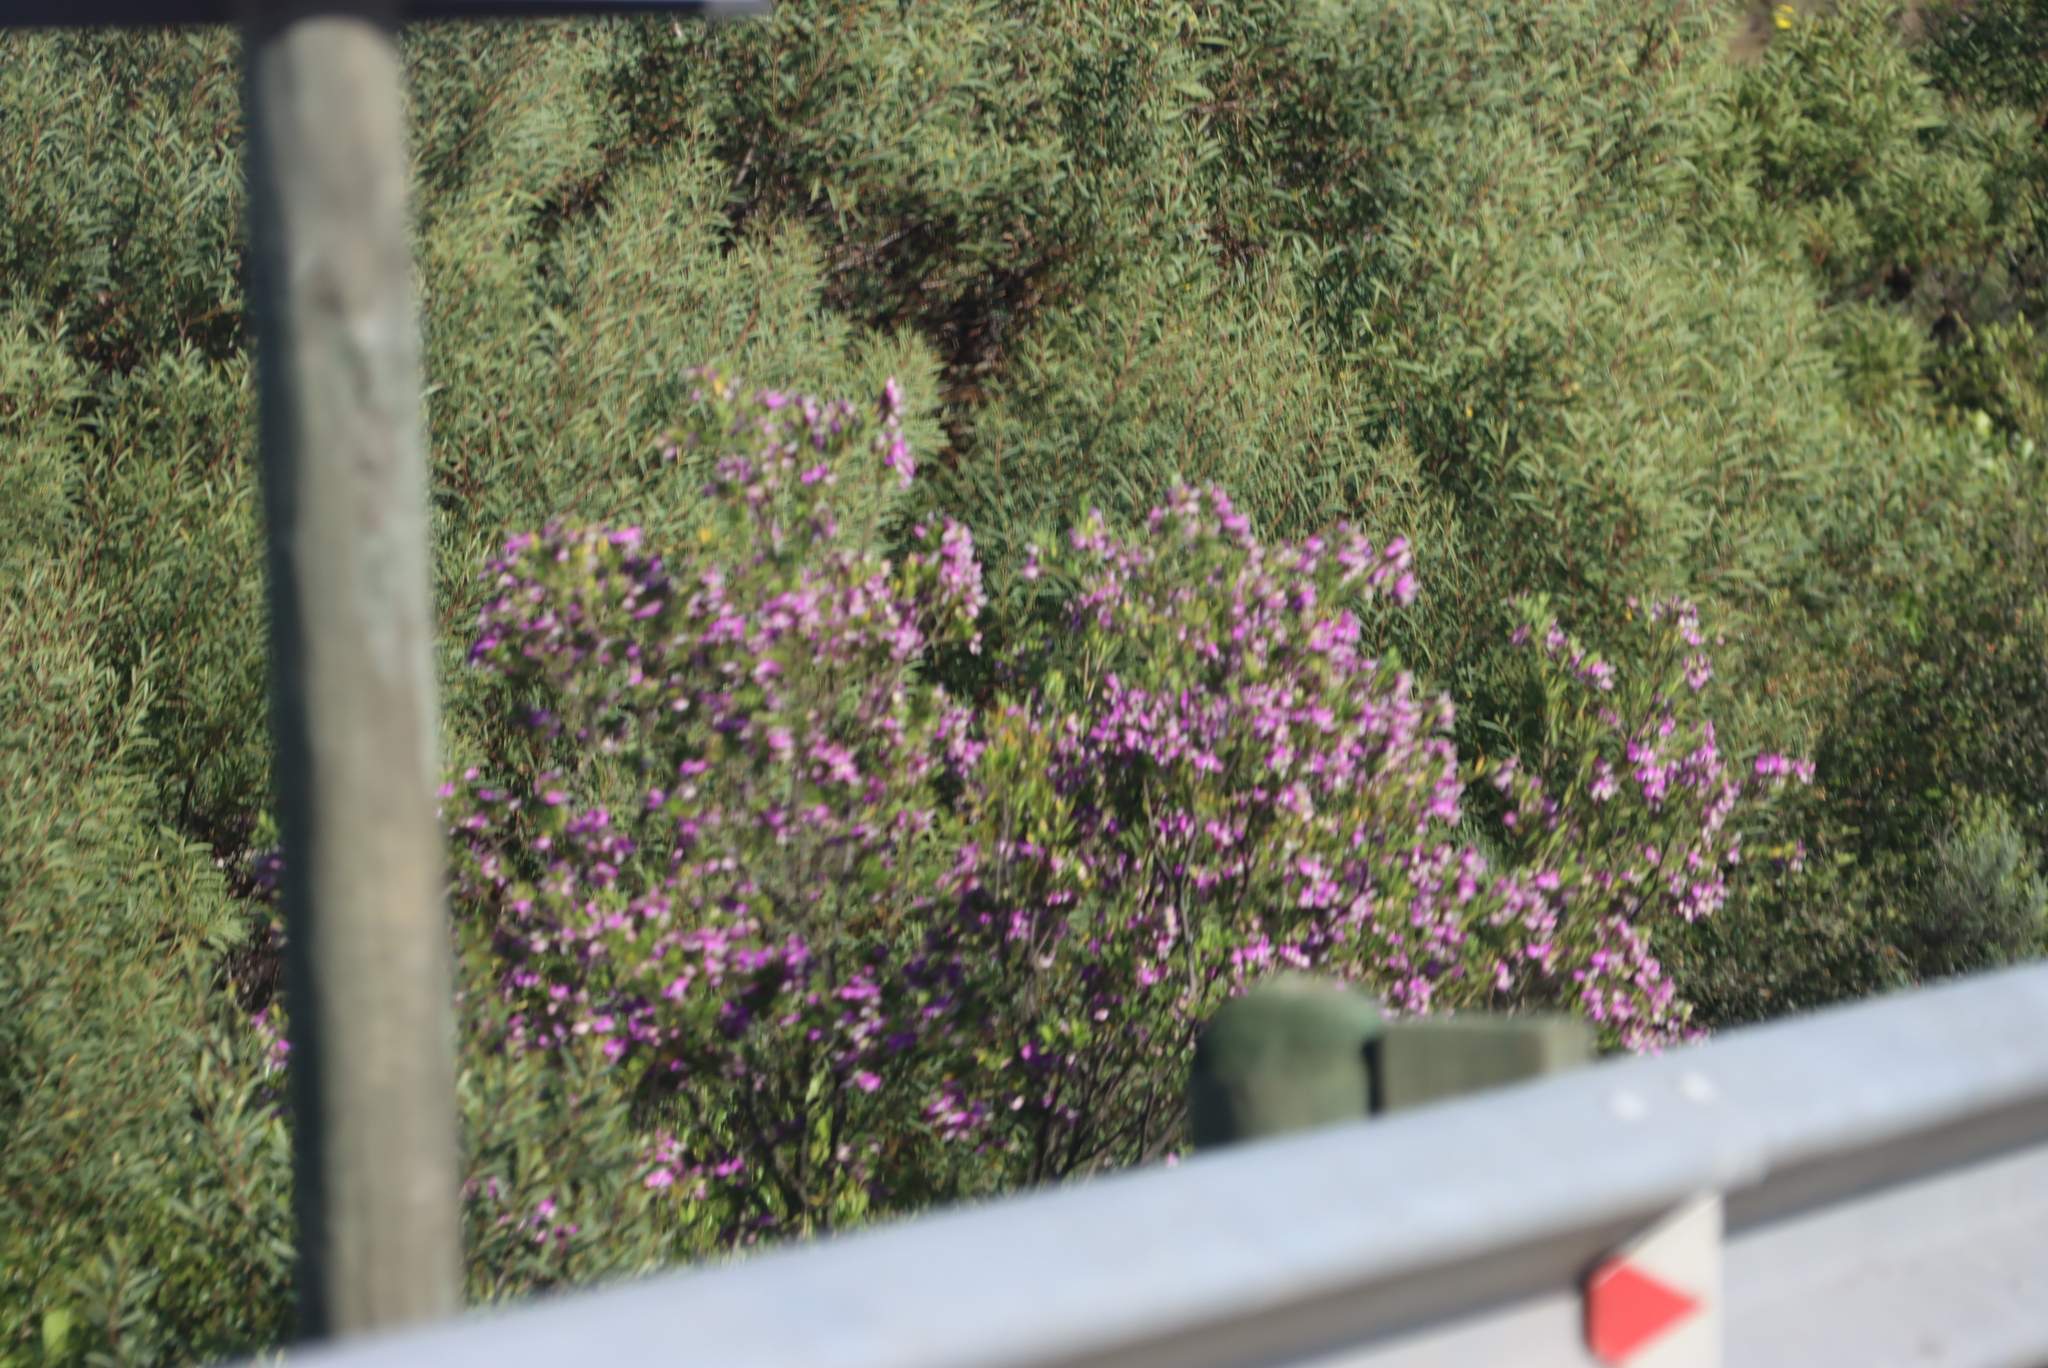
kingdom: Plantae
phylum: Tracheophyta
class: Magnoliopsida
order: Fabales
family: Polygalaceae
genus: Polygala
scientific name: Polygala myrtifolia
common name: Myrtle-leaf milkwort
